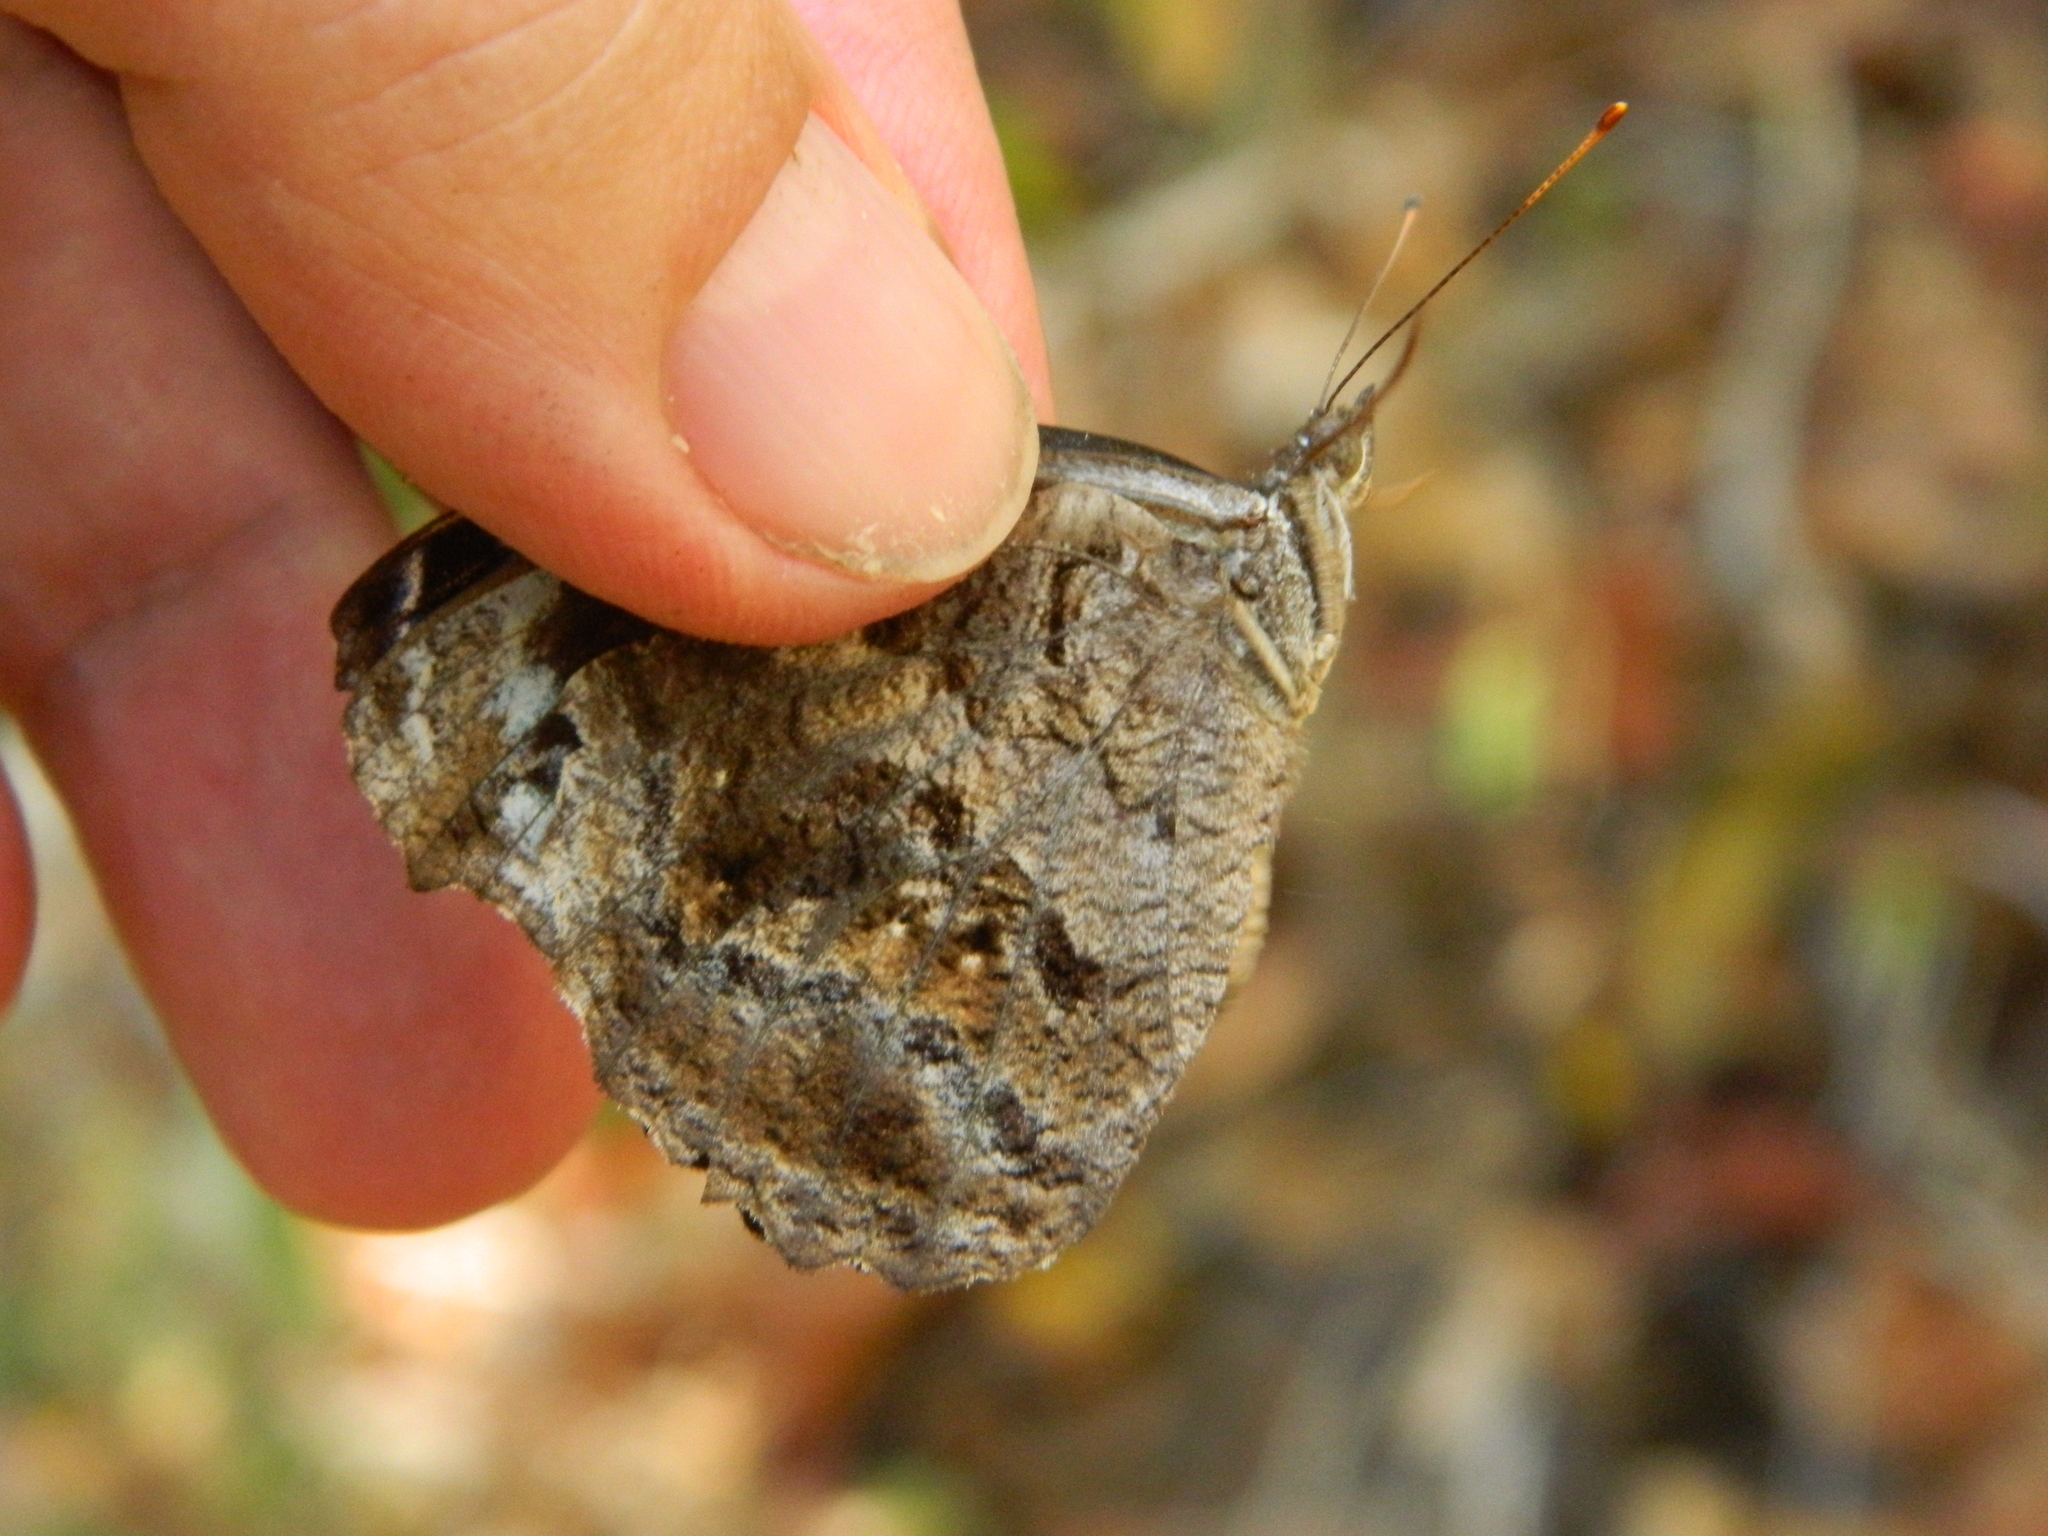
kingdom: Animalia
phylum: Arthropoda
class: Insecta
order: Lepidoptera
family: Nymphalidae
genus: Myscelia
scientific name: Myscelia cyananthe
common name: Blackened bluewing
